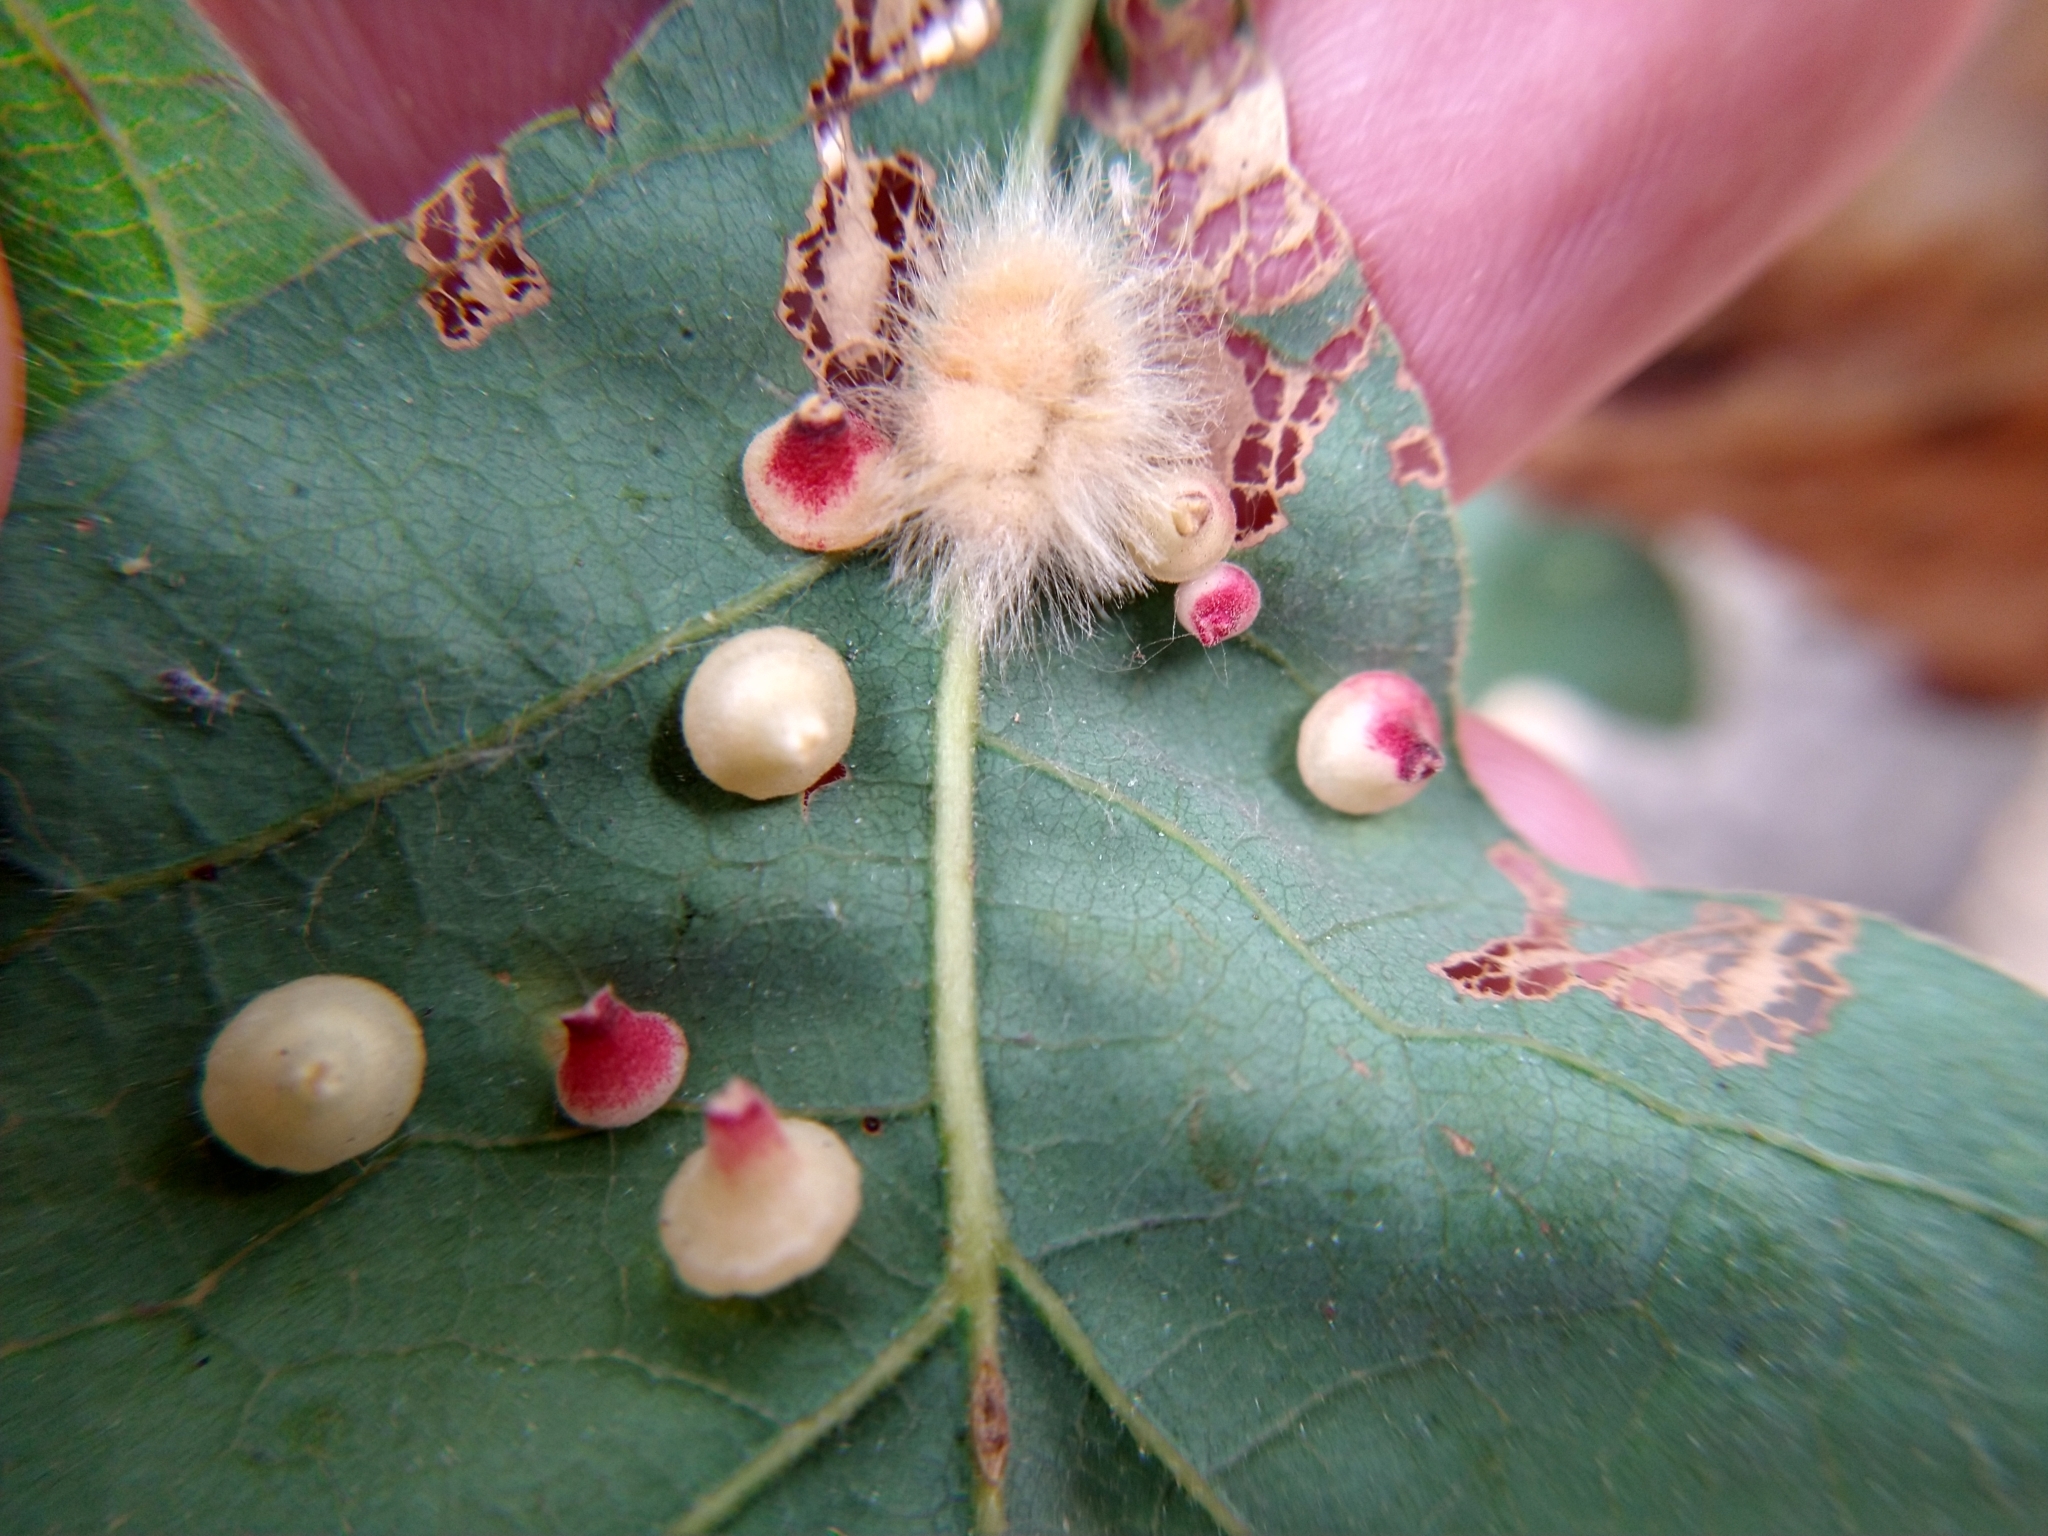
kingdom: Animalia
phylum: Arthropoda
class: Insecta
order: Hymenoptera
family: Cynipidae
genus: Andricus
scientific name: Andricus Druon fullawayi
